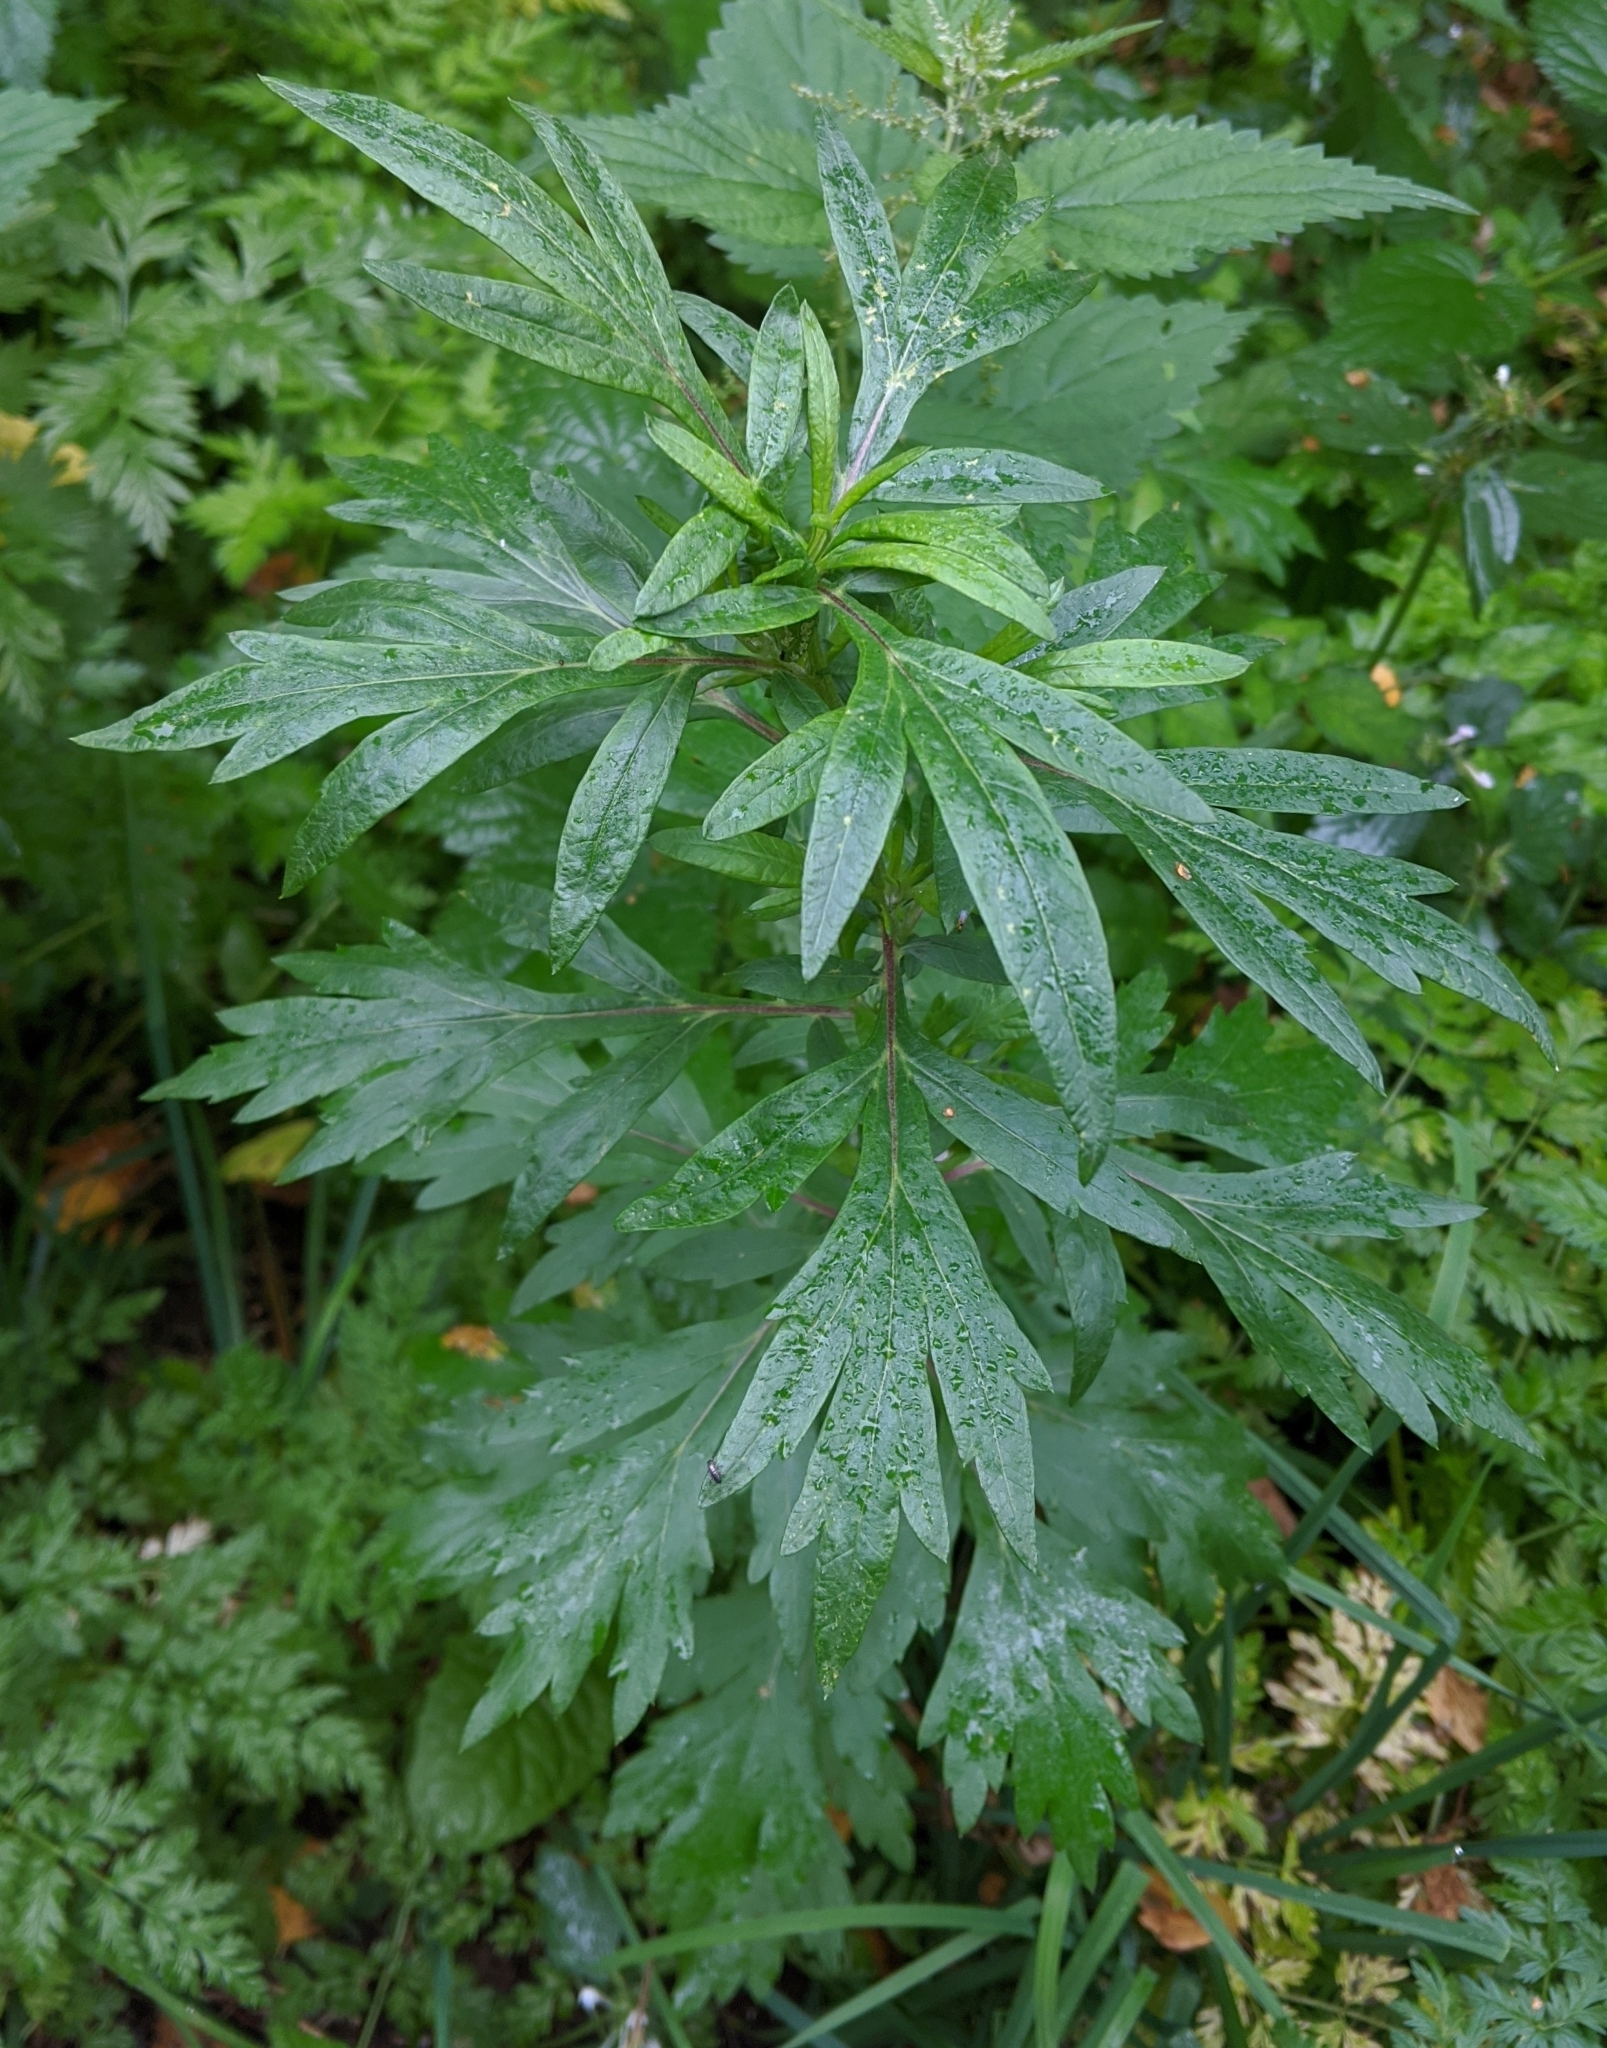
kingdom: Plantae
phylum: Tracheophyta
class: Magnoliopsida
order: Asterales
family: Asteraceae
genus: Artemisia
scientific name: Artemisia vulgaris
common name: Mugwort
